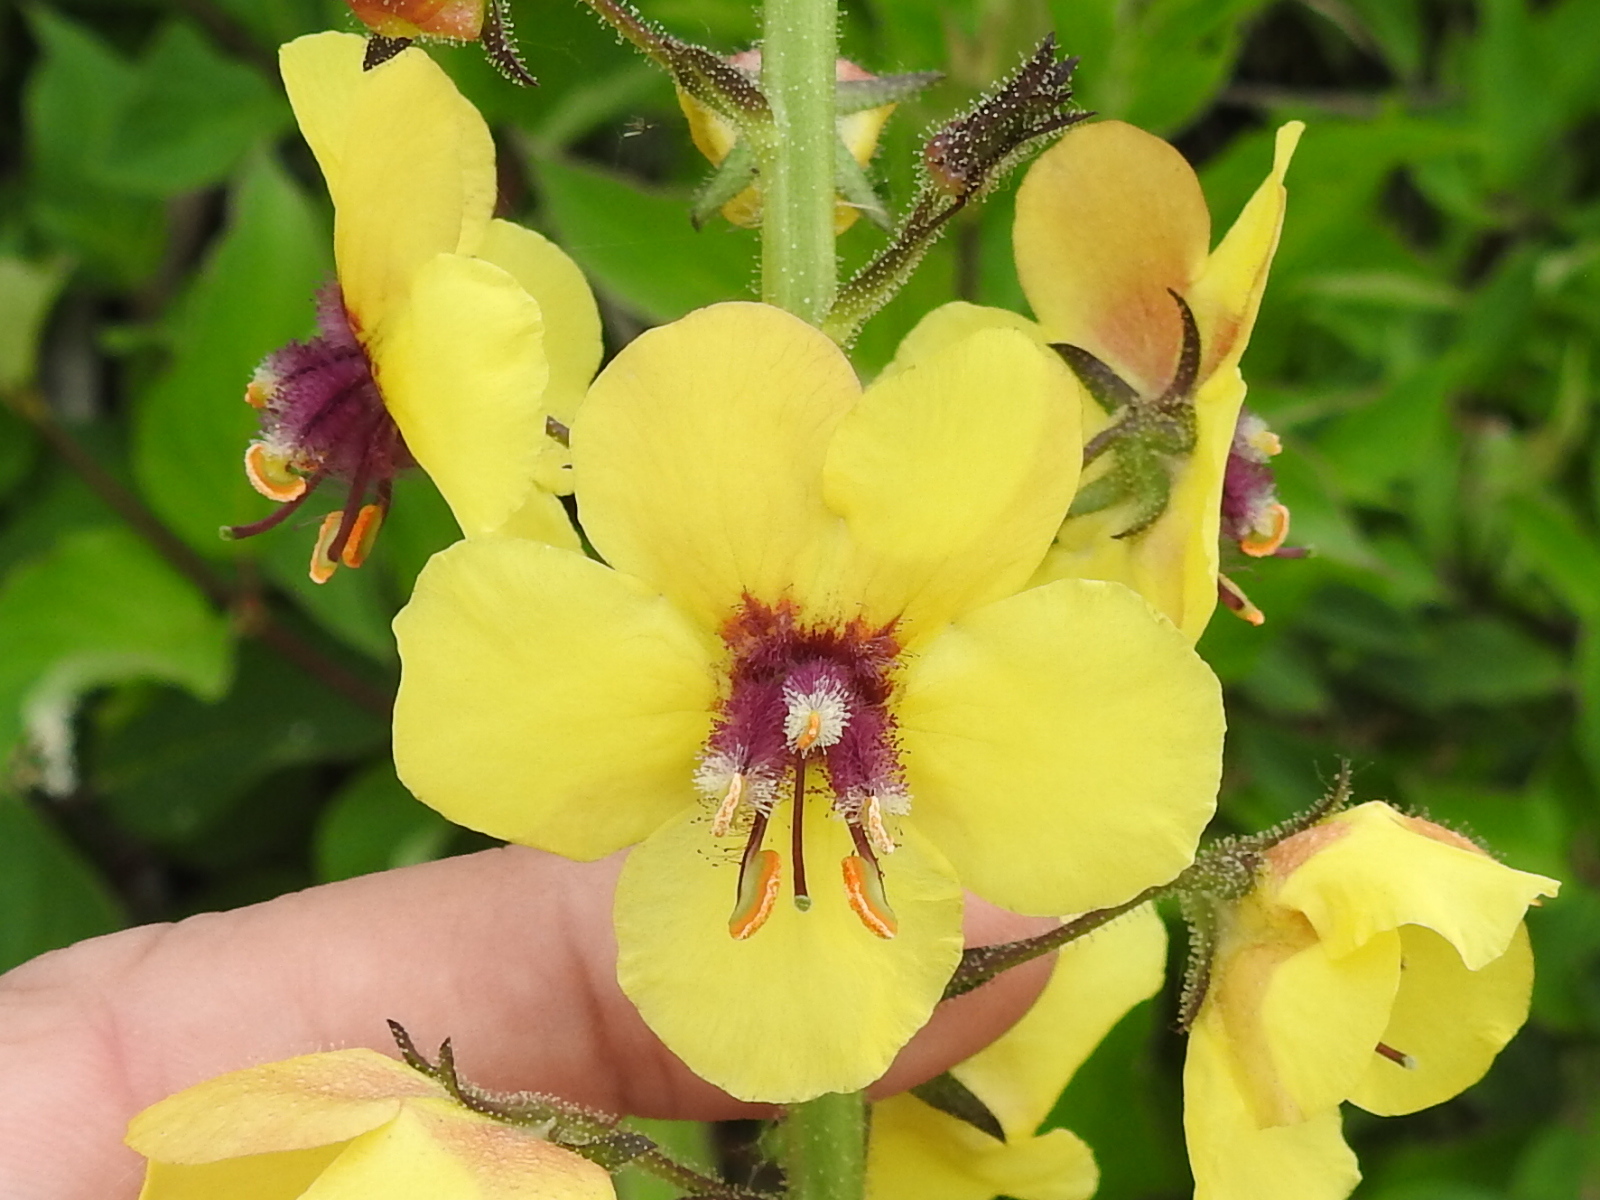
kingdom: Plantae
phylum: Tracheophyta
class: Magnoliopsida
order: Lamiales
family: Scrophulariaceae
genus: Verbascum
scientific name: Verbascum blattaria
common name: Moth mullein
